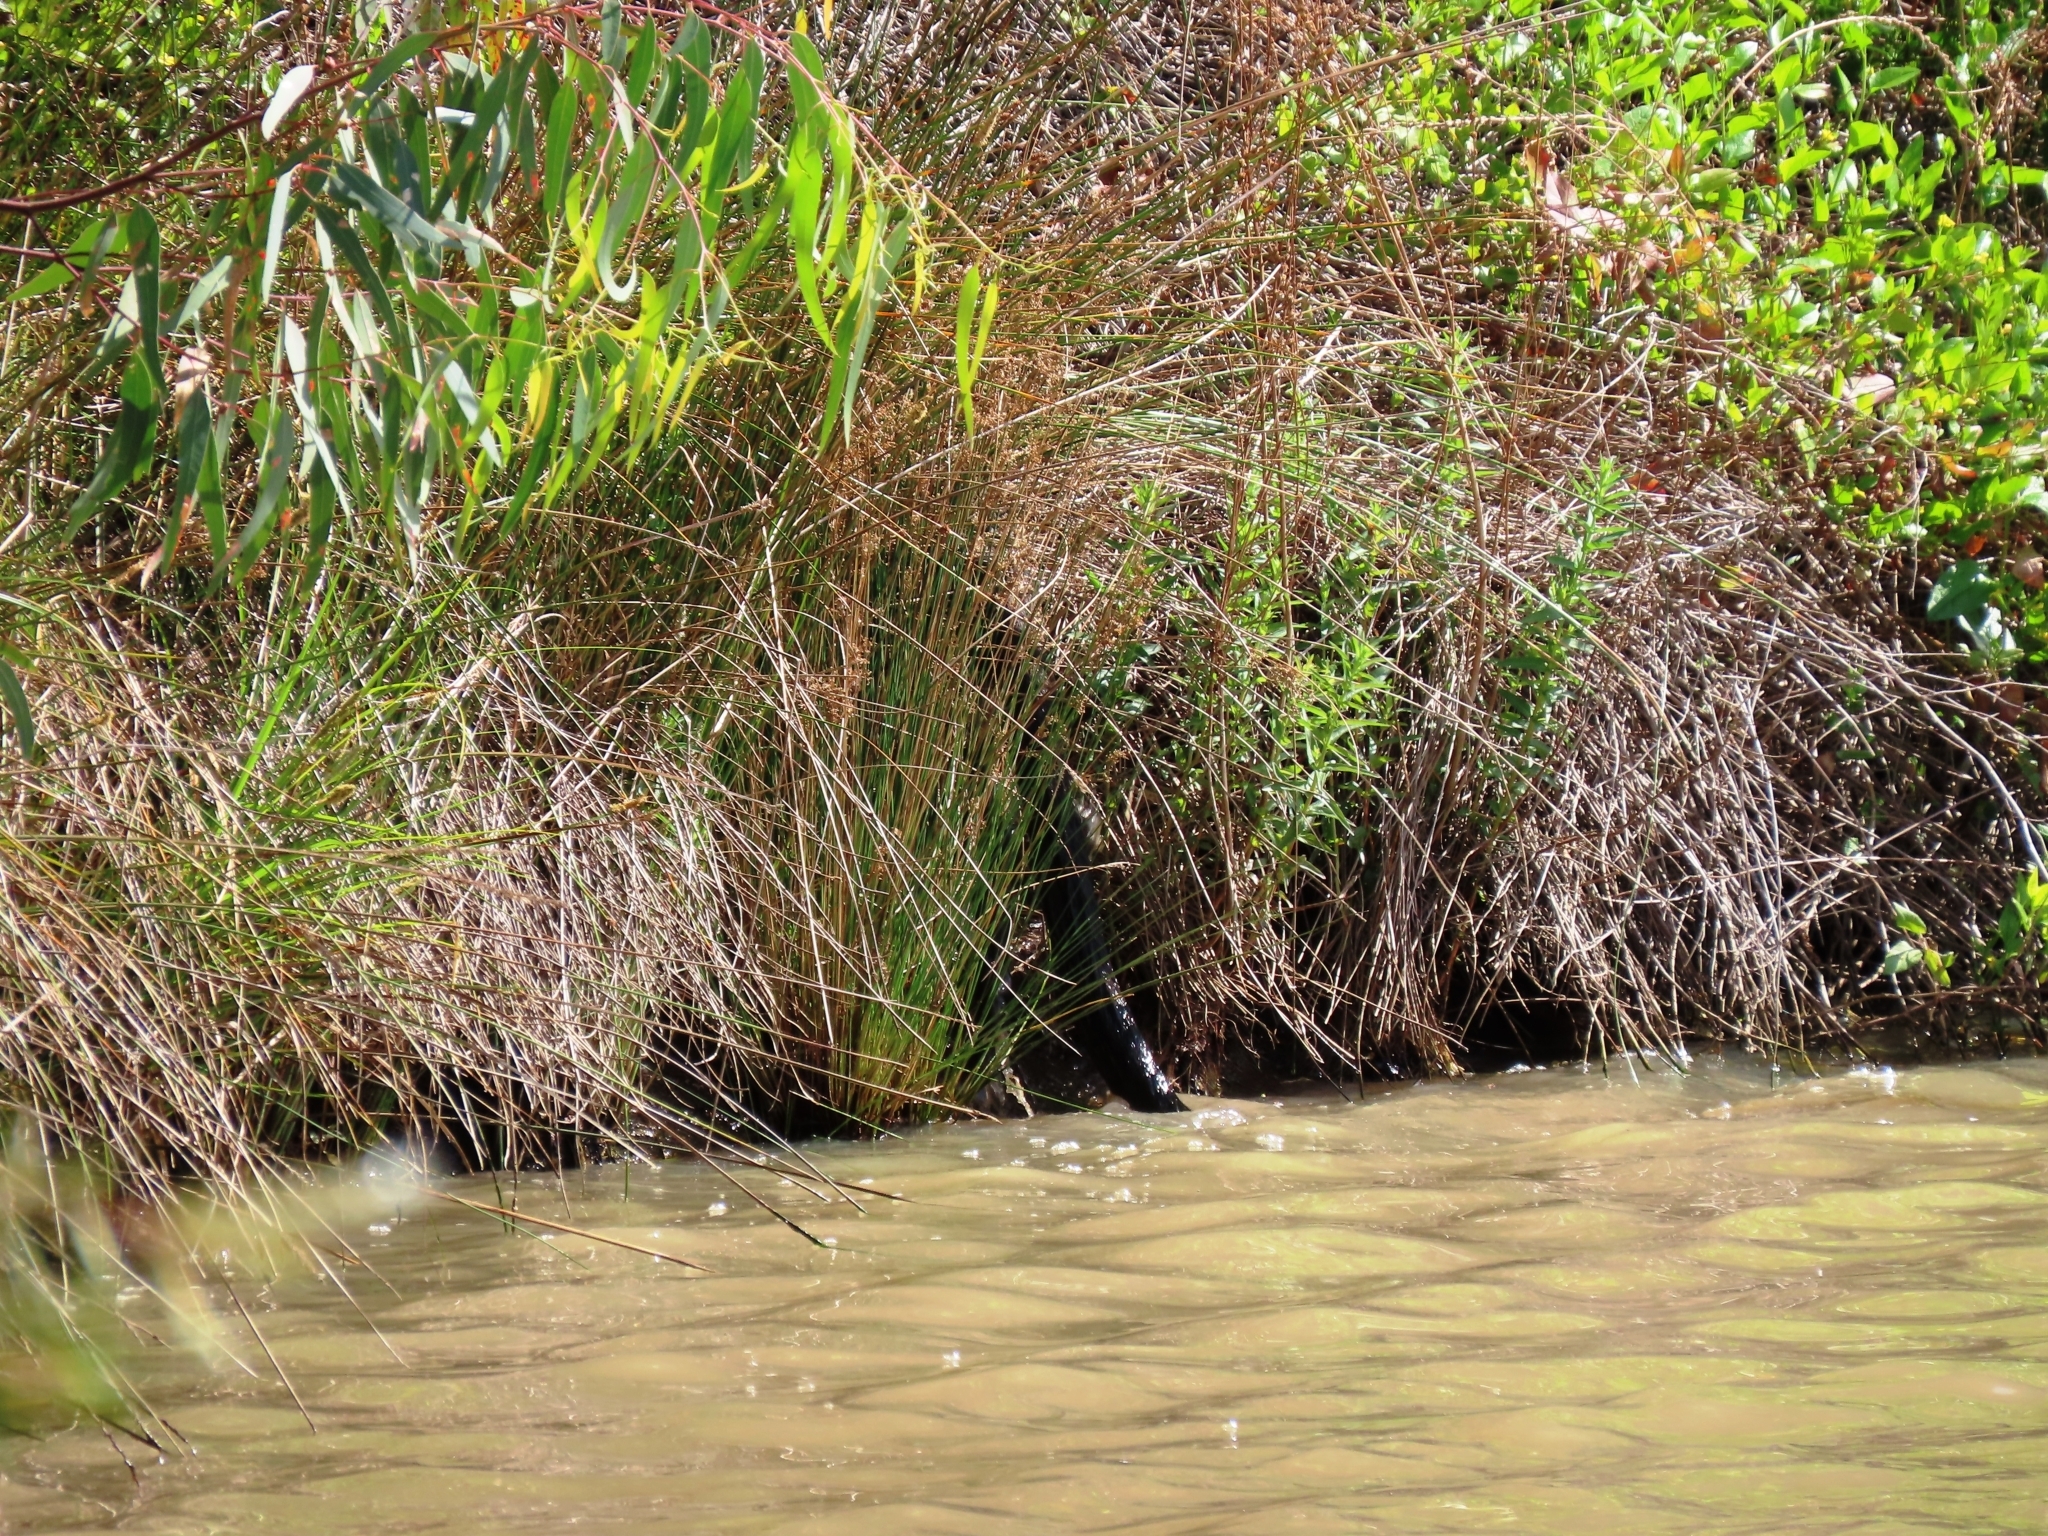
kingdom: Animalia
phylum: Chordata
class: Mammalia
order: Diprotodontia
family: Macropodidae
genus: Wallabia
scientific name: Wallabia bicolor
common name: Swamp wallaby
